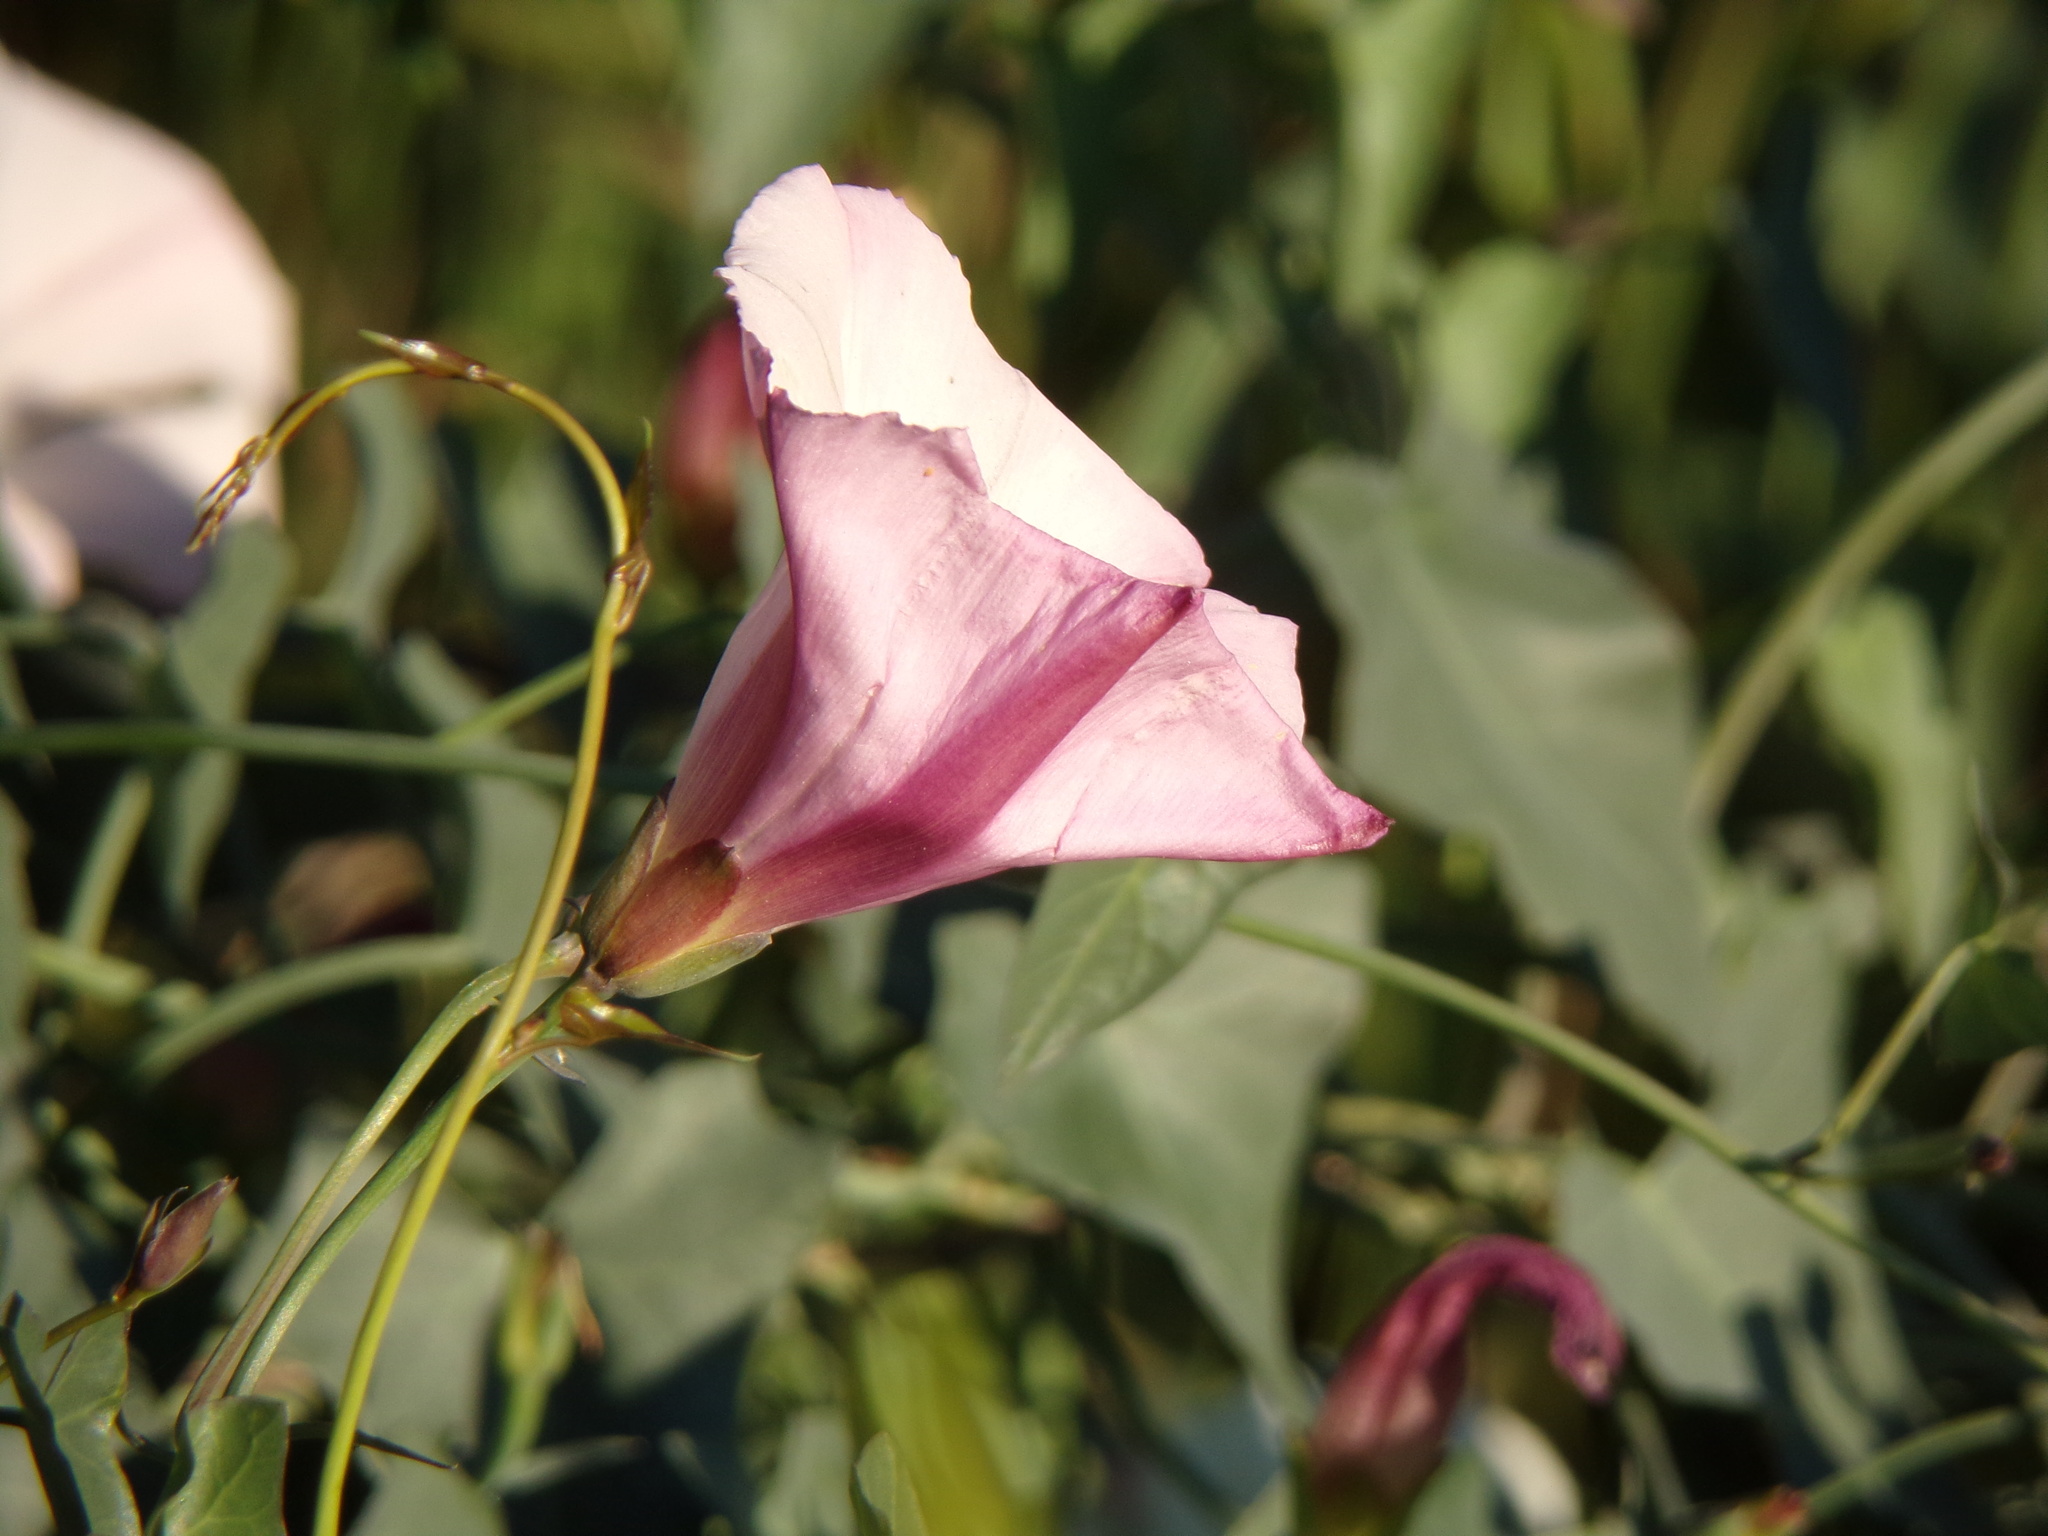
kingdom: Plantae
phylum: Tracheophyta
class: Magnoliopsida
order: Solanales
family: Convolvulaceae
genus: Calystegia
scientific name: Calystegia purpurata
